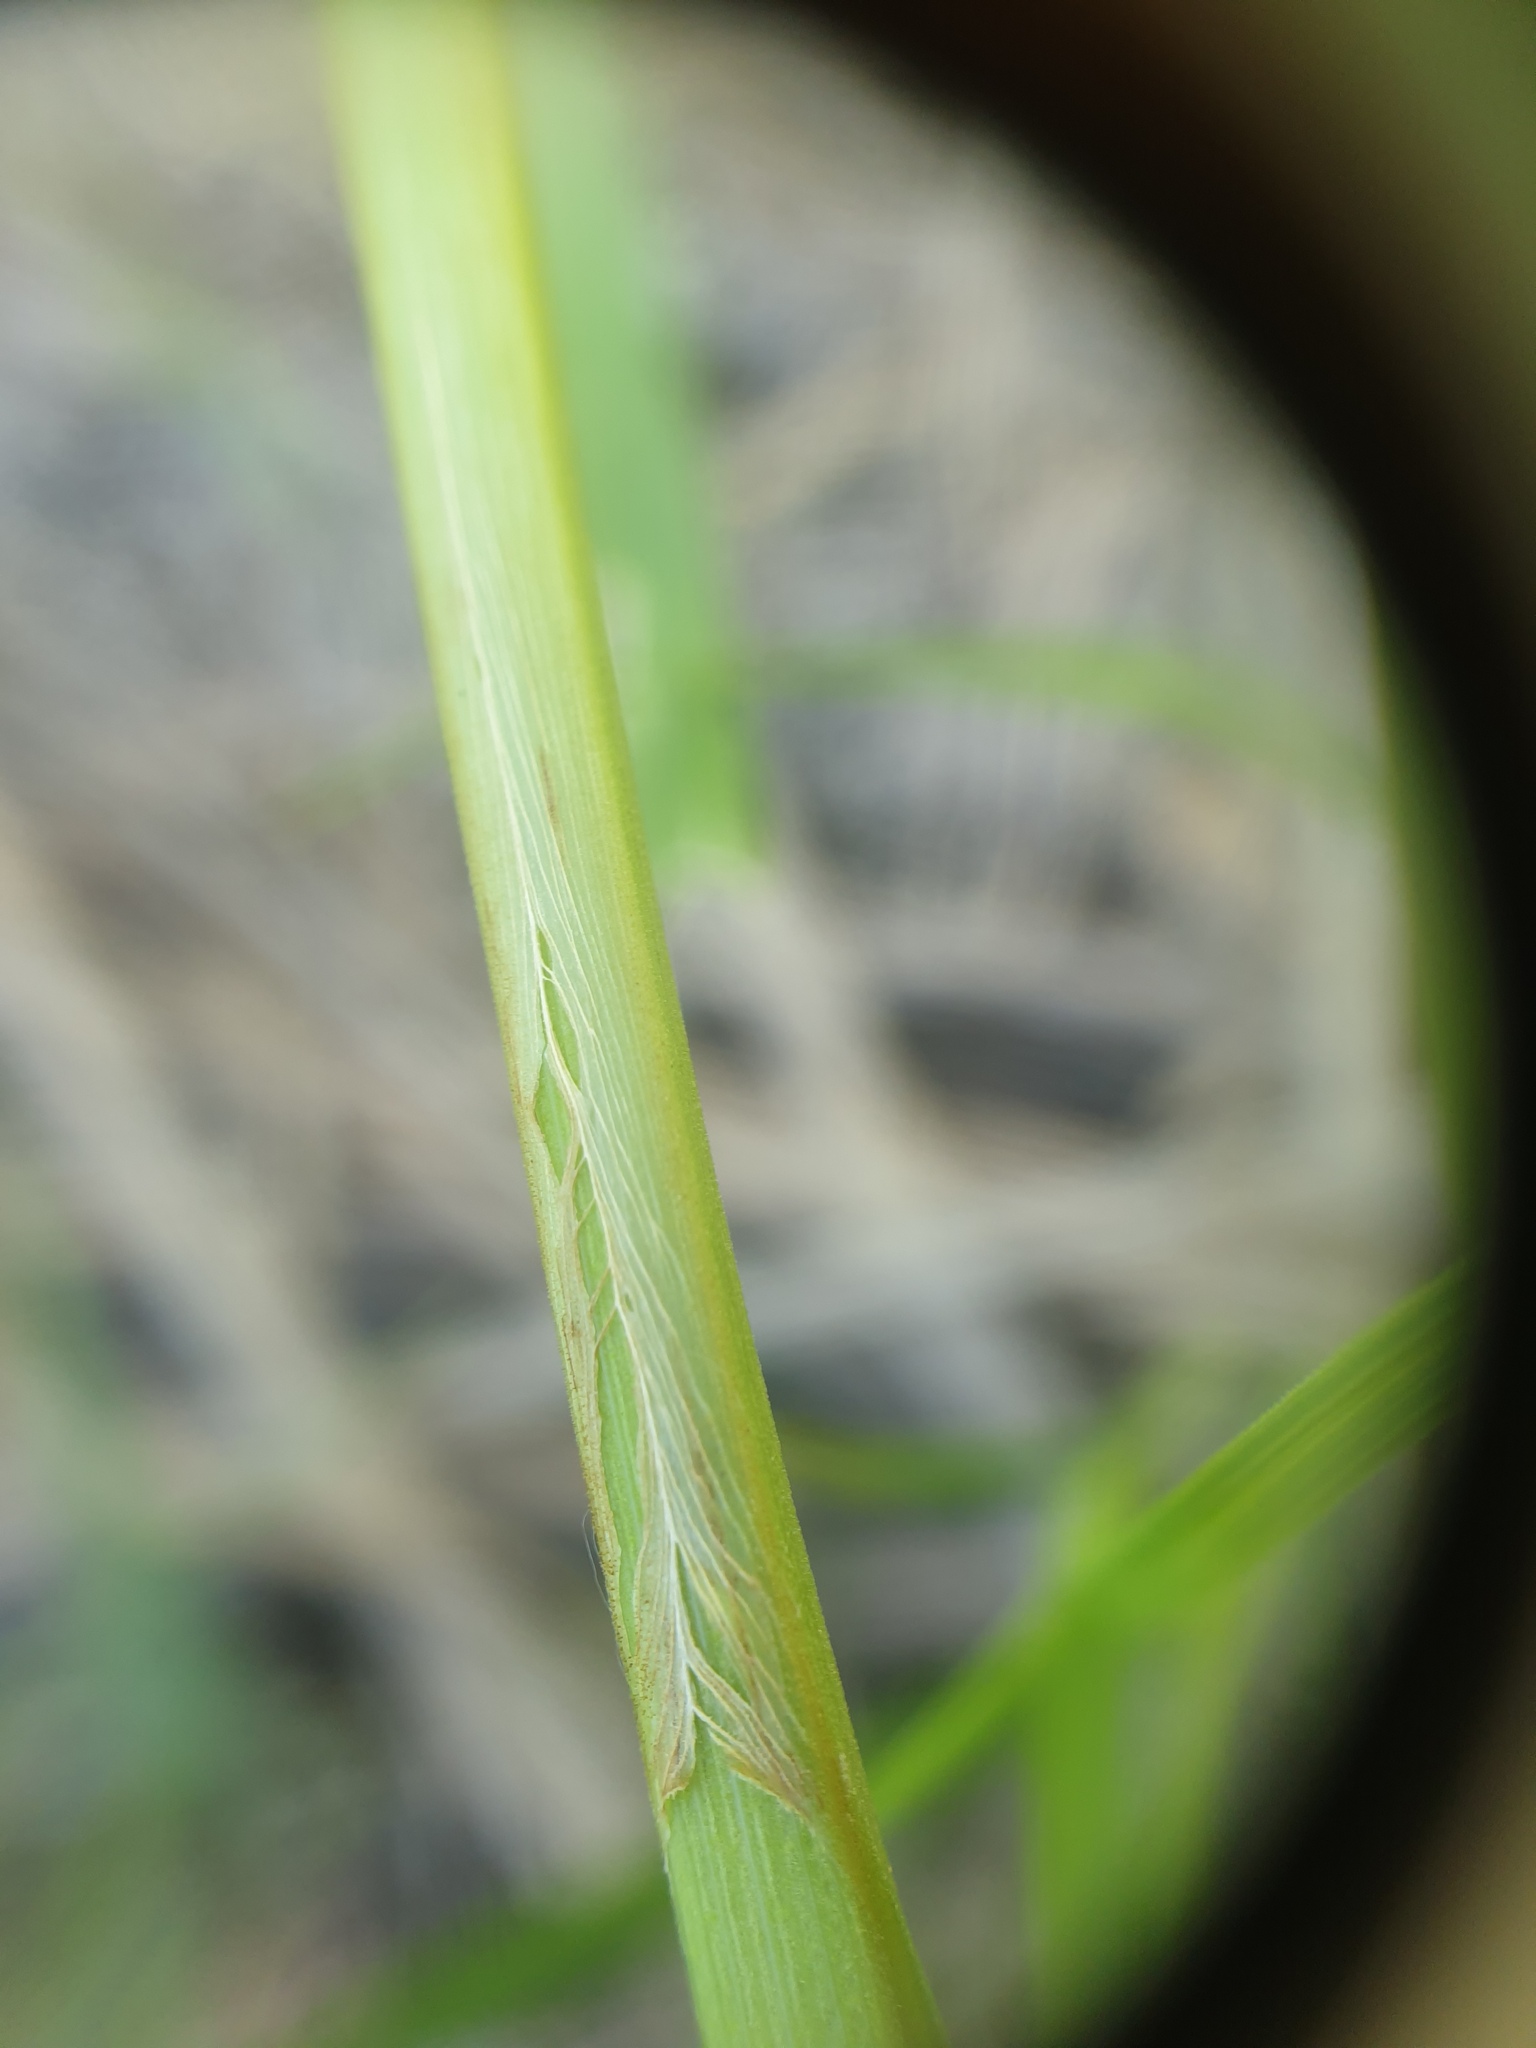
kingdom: Plantae
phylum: Tracheophyta
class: Liliopsida
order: Poales
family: Cyperaceae
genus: Carex
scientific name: Carex laeviconica
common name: Plains slough sedge
